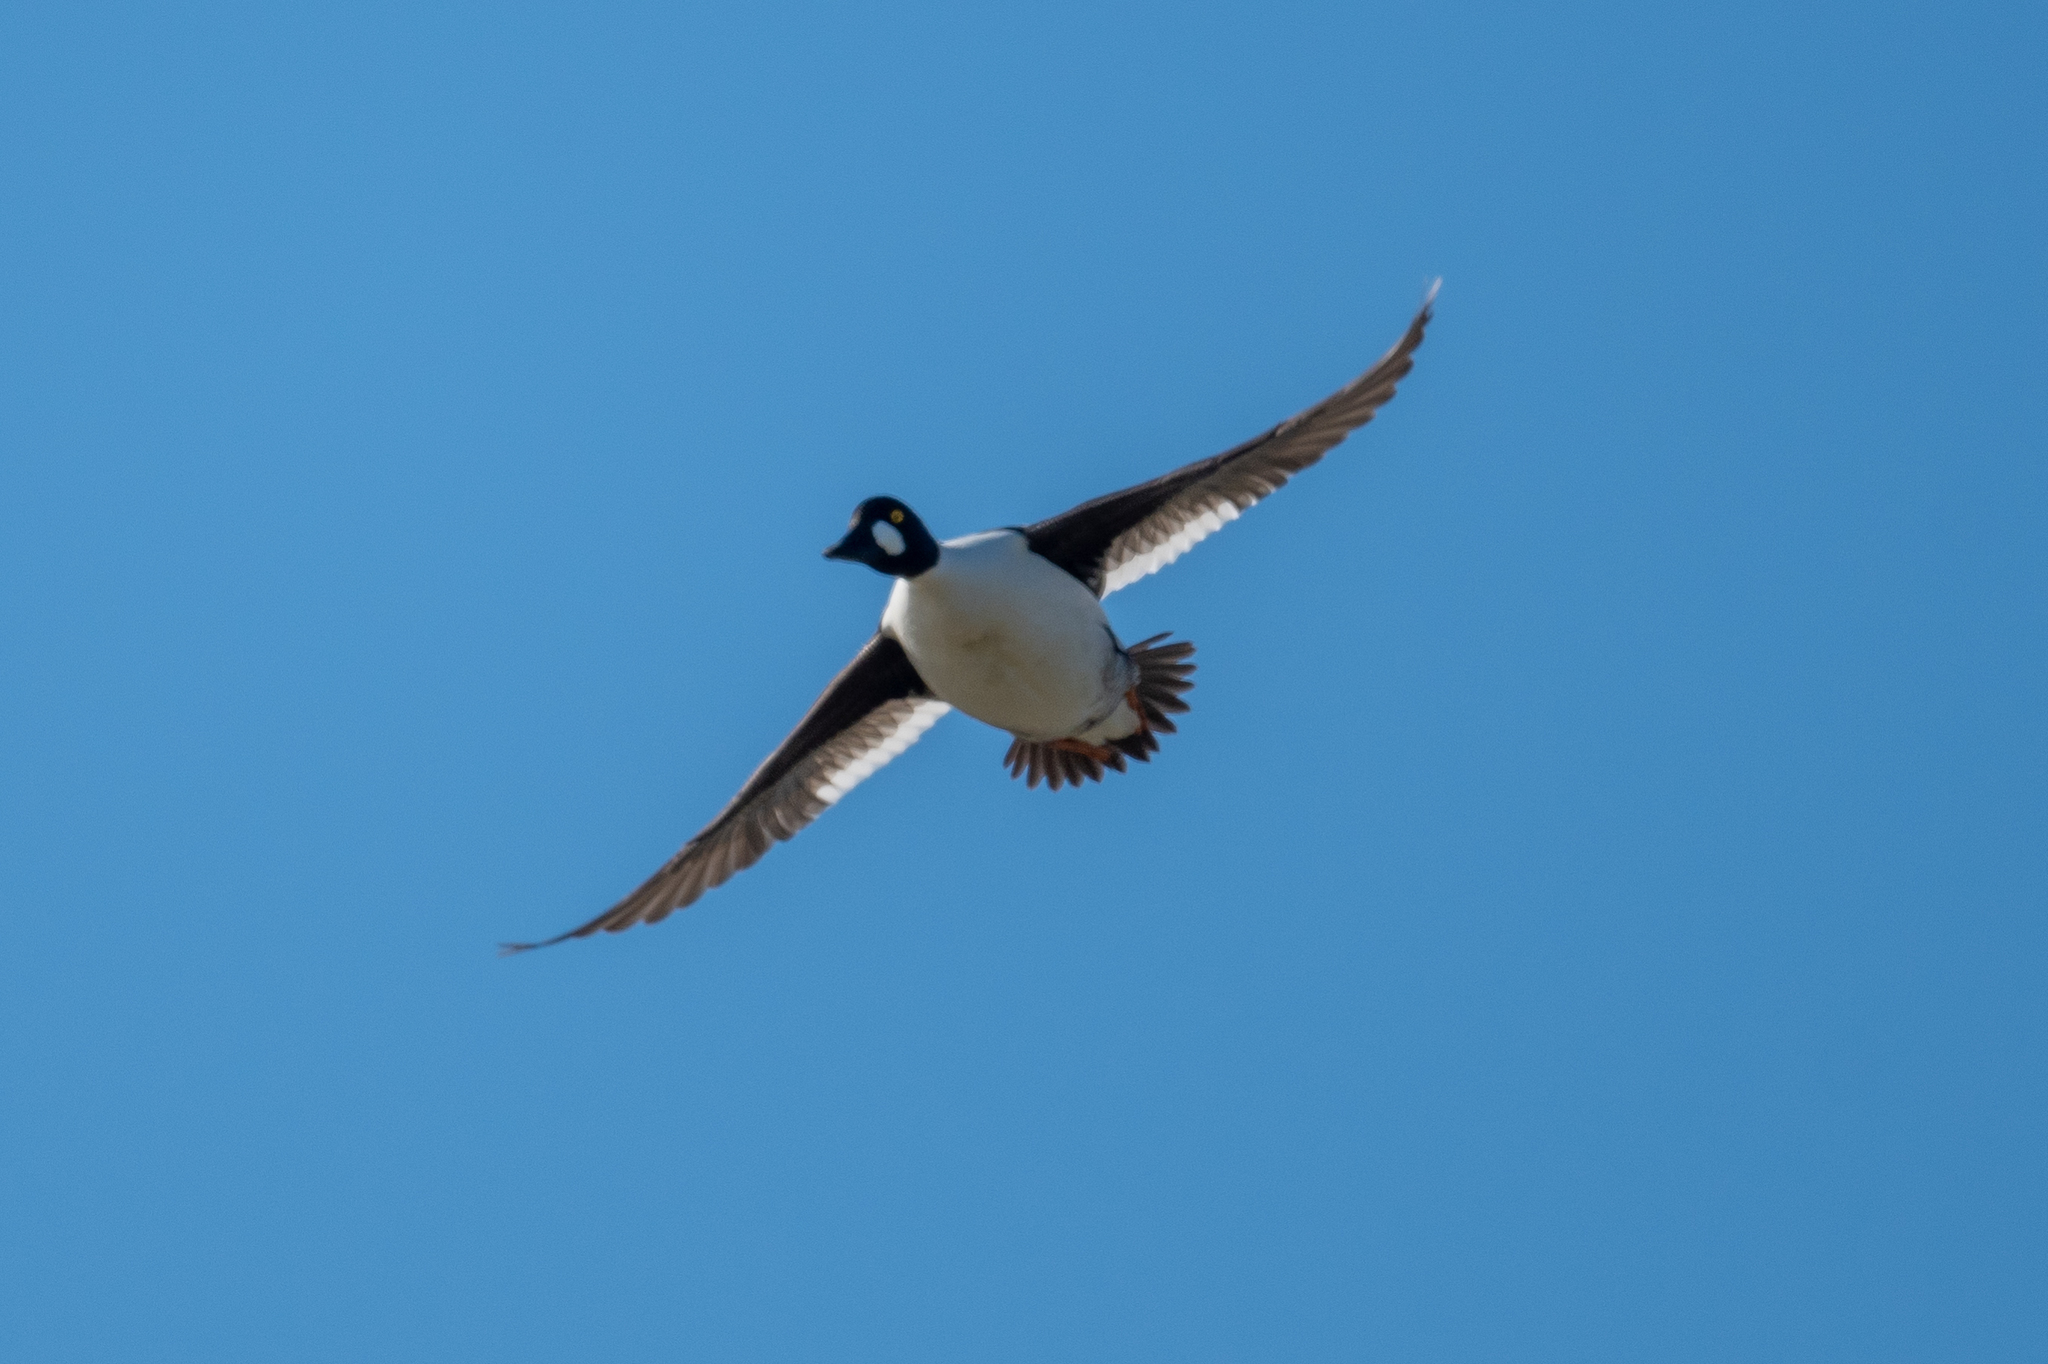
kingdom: Animalia
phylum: Chordata
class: Aves
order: Anseriformes
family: Anatidae
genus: Bucephala
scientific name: Bucephala clangula
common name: Common goldeneye
